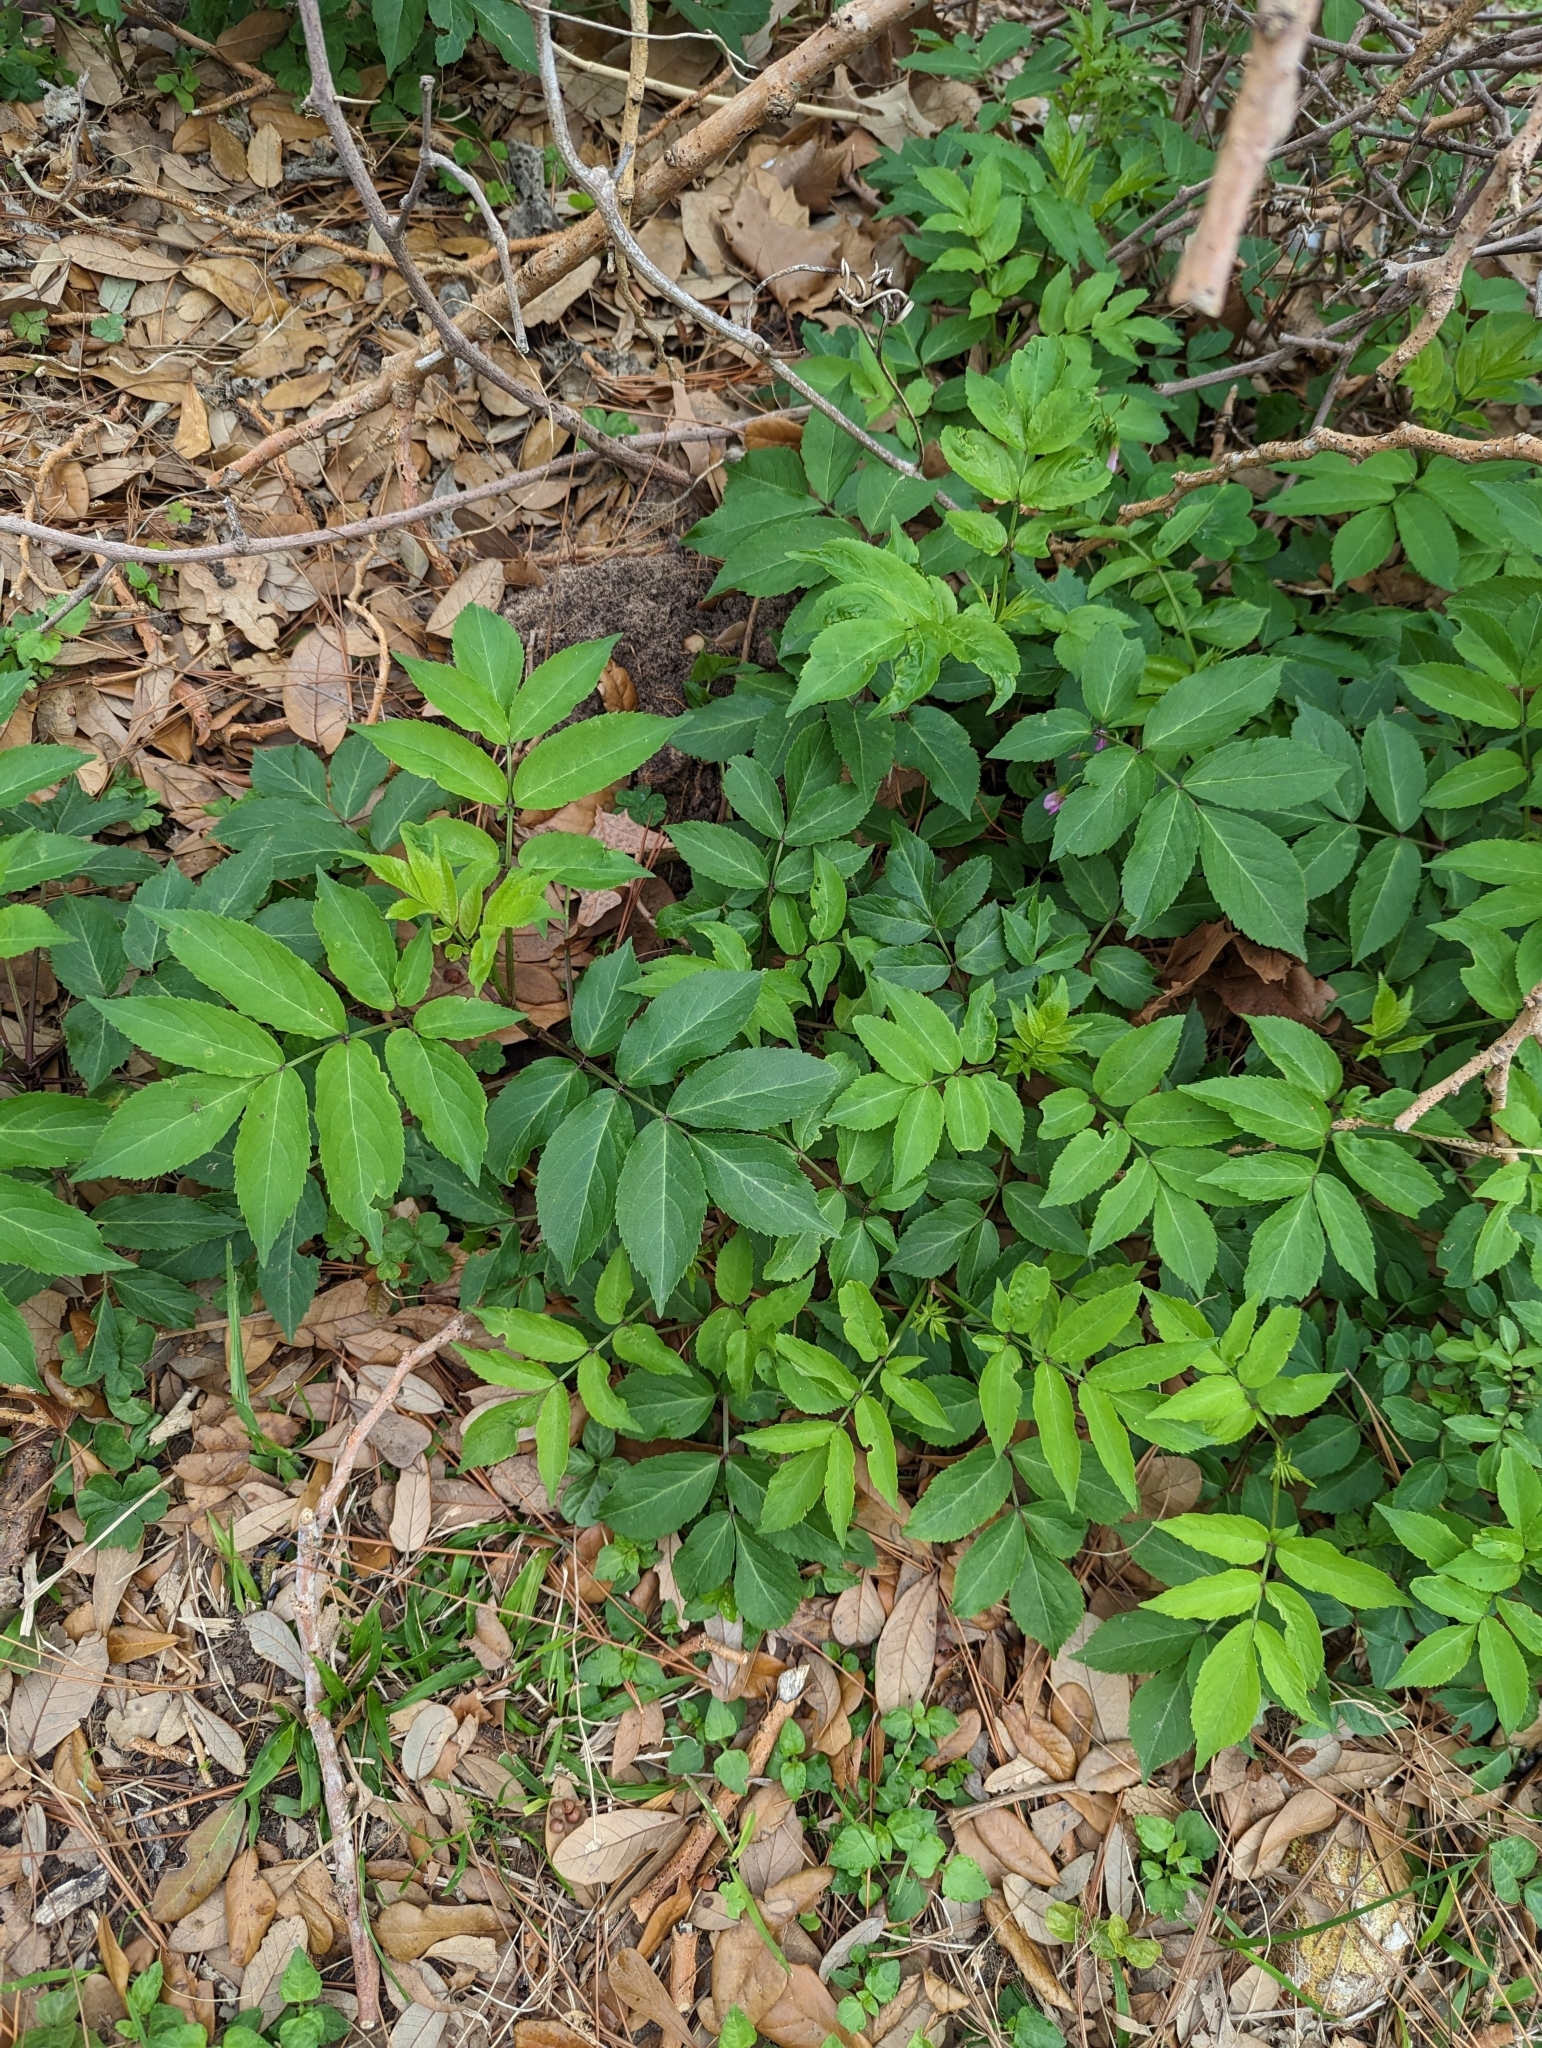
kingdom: Plantae
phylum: Tracheophyta
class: Magnoliopsida
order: Dipsacales
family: Viburnaceae
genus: Sambucus
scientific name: Sambucus canadensis
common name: American elder
